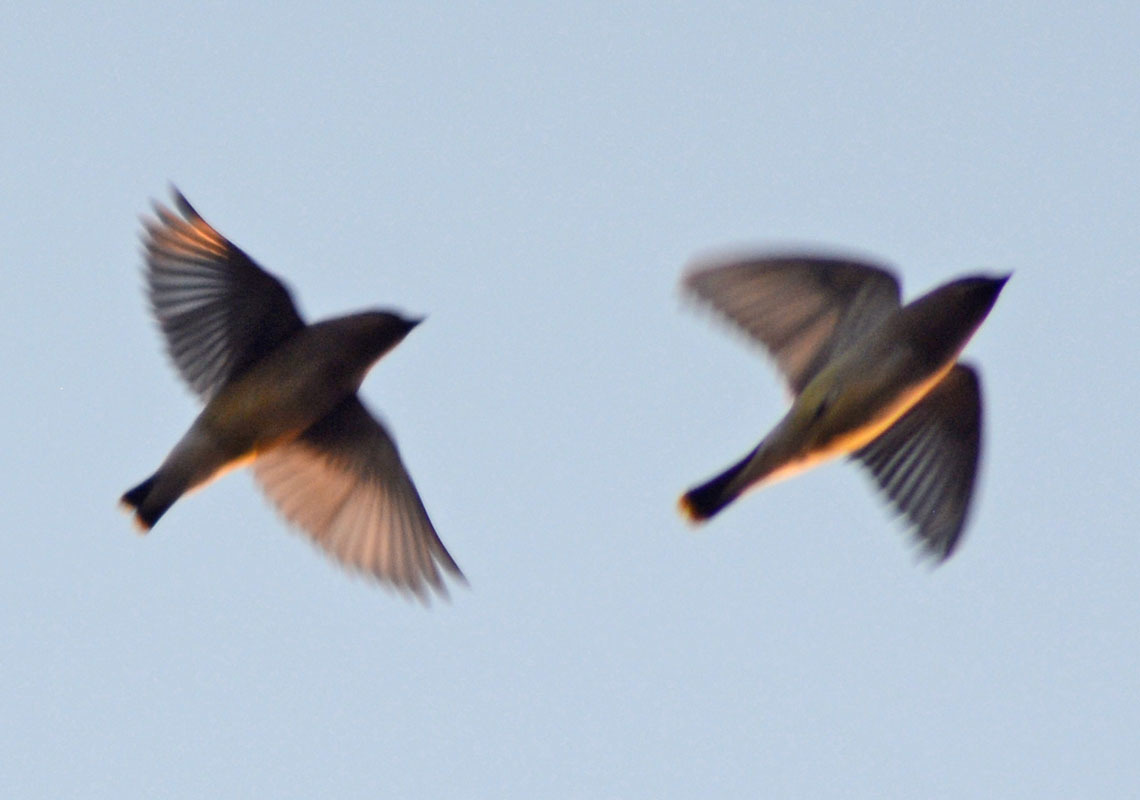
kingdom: Animalia
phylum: Chordata
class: Aves
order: Passeriformes
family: Bombycillidae
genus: Bombycilla
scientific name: Bombycilla cedrorum
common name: Cedar waxwing
